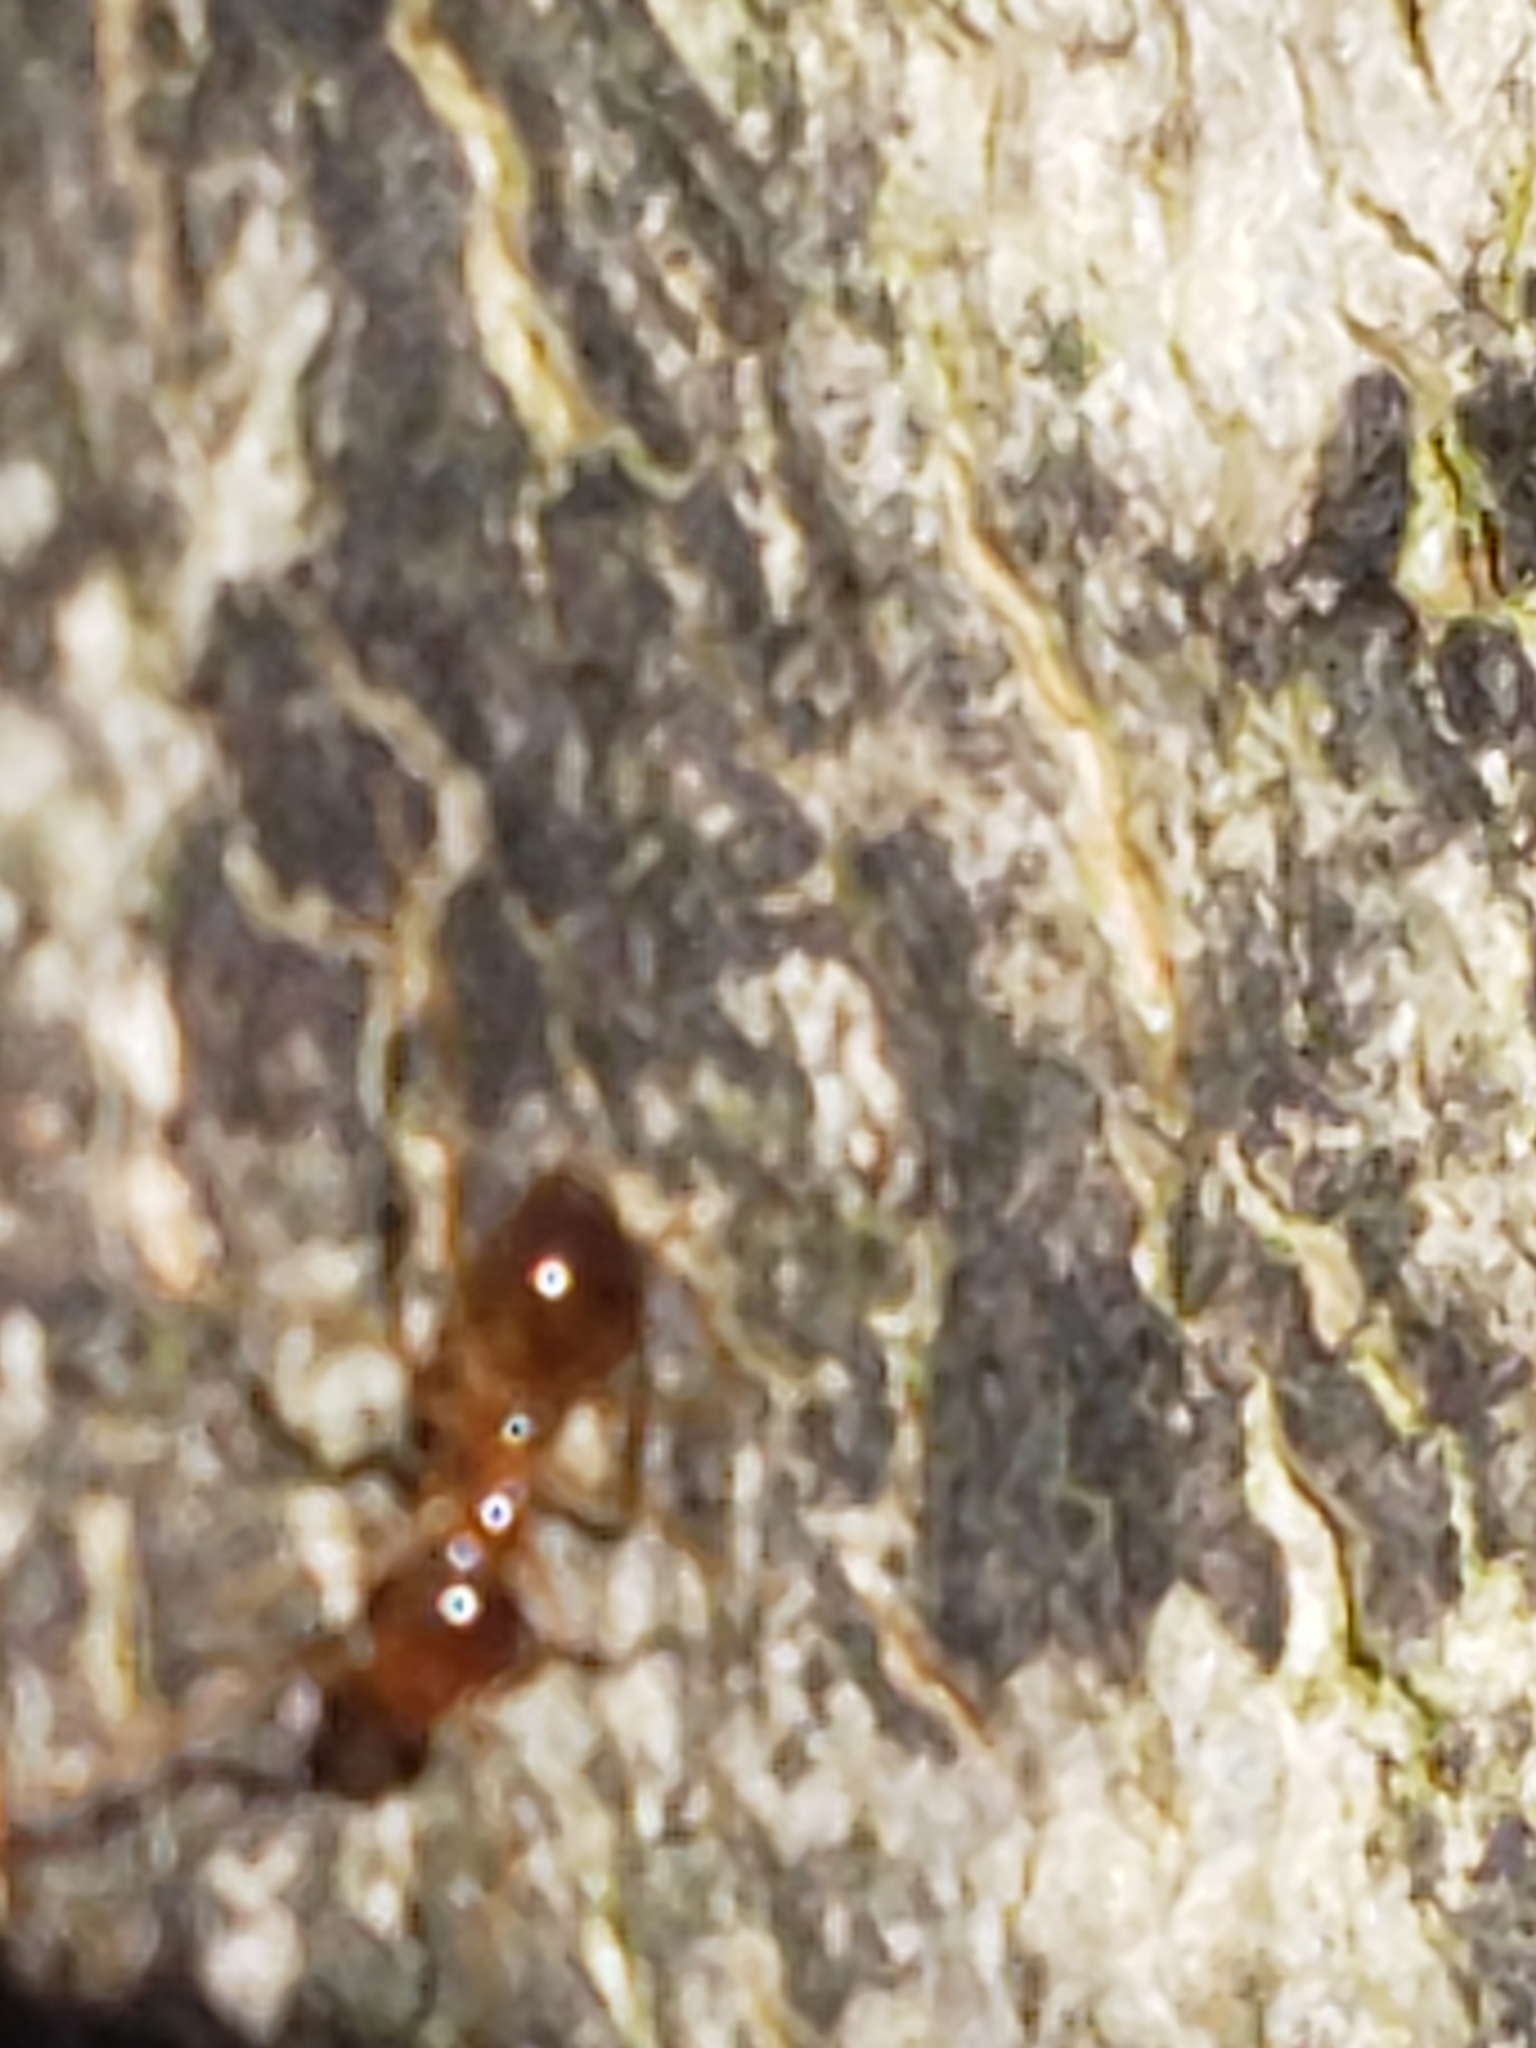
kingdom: Animalia
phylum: Arthropoda
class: Insecta
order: Hymenoptera
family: Formicidae
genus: Prenolepis
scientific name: Prenolepis imparis
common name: Small honey ant
